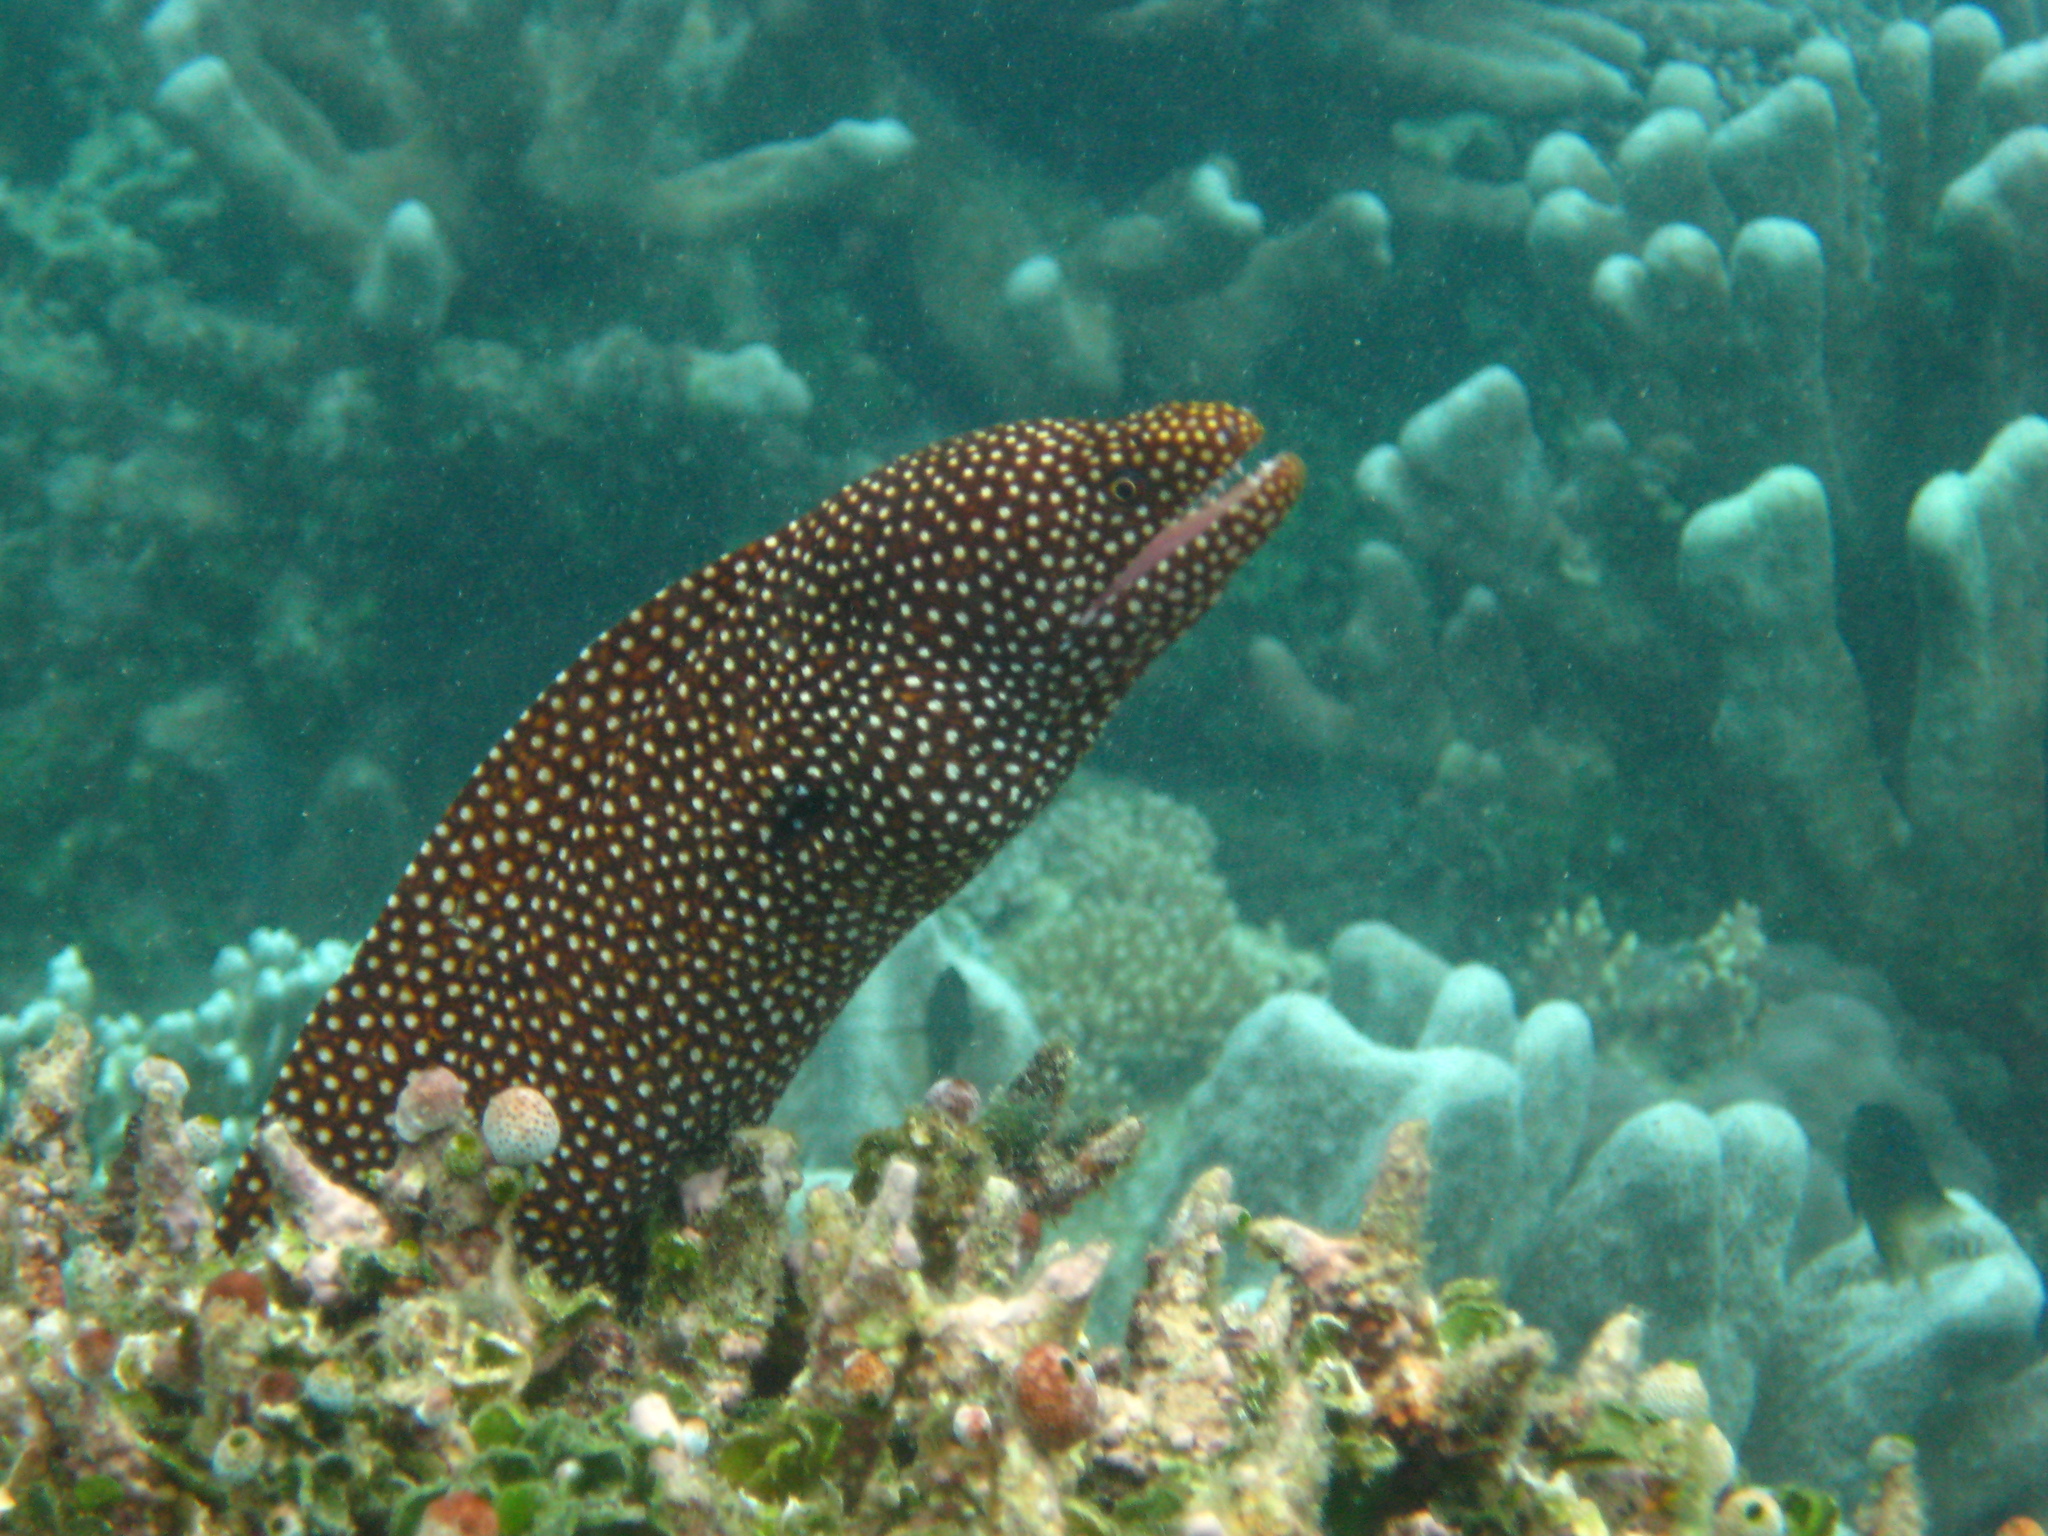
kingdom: Animalia
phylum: Chordata
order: Anguilliformes
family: Muraenidae
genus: Gymnothorax
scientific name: Gymnothorax meleagris
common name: Guineafowl moray
